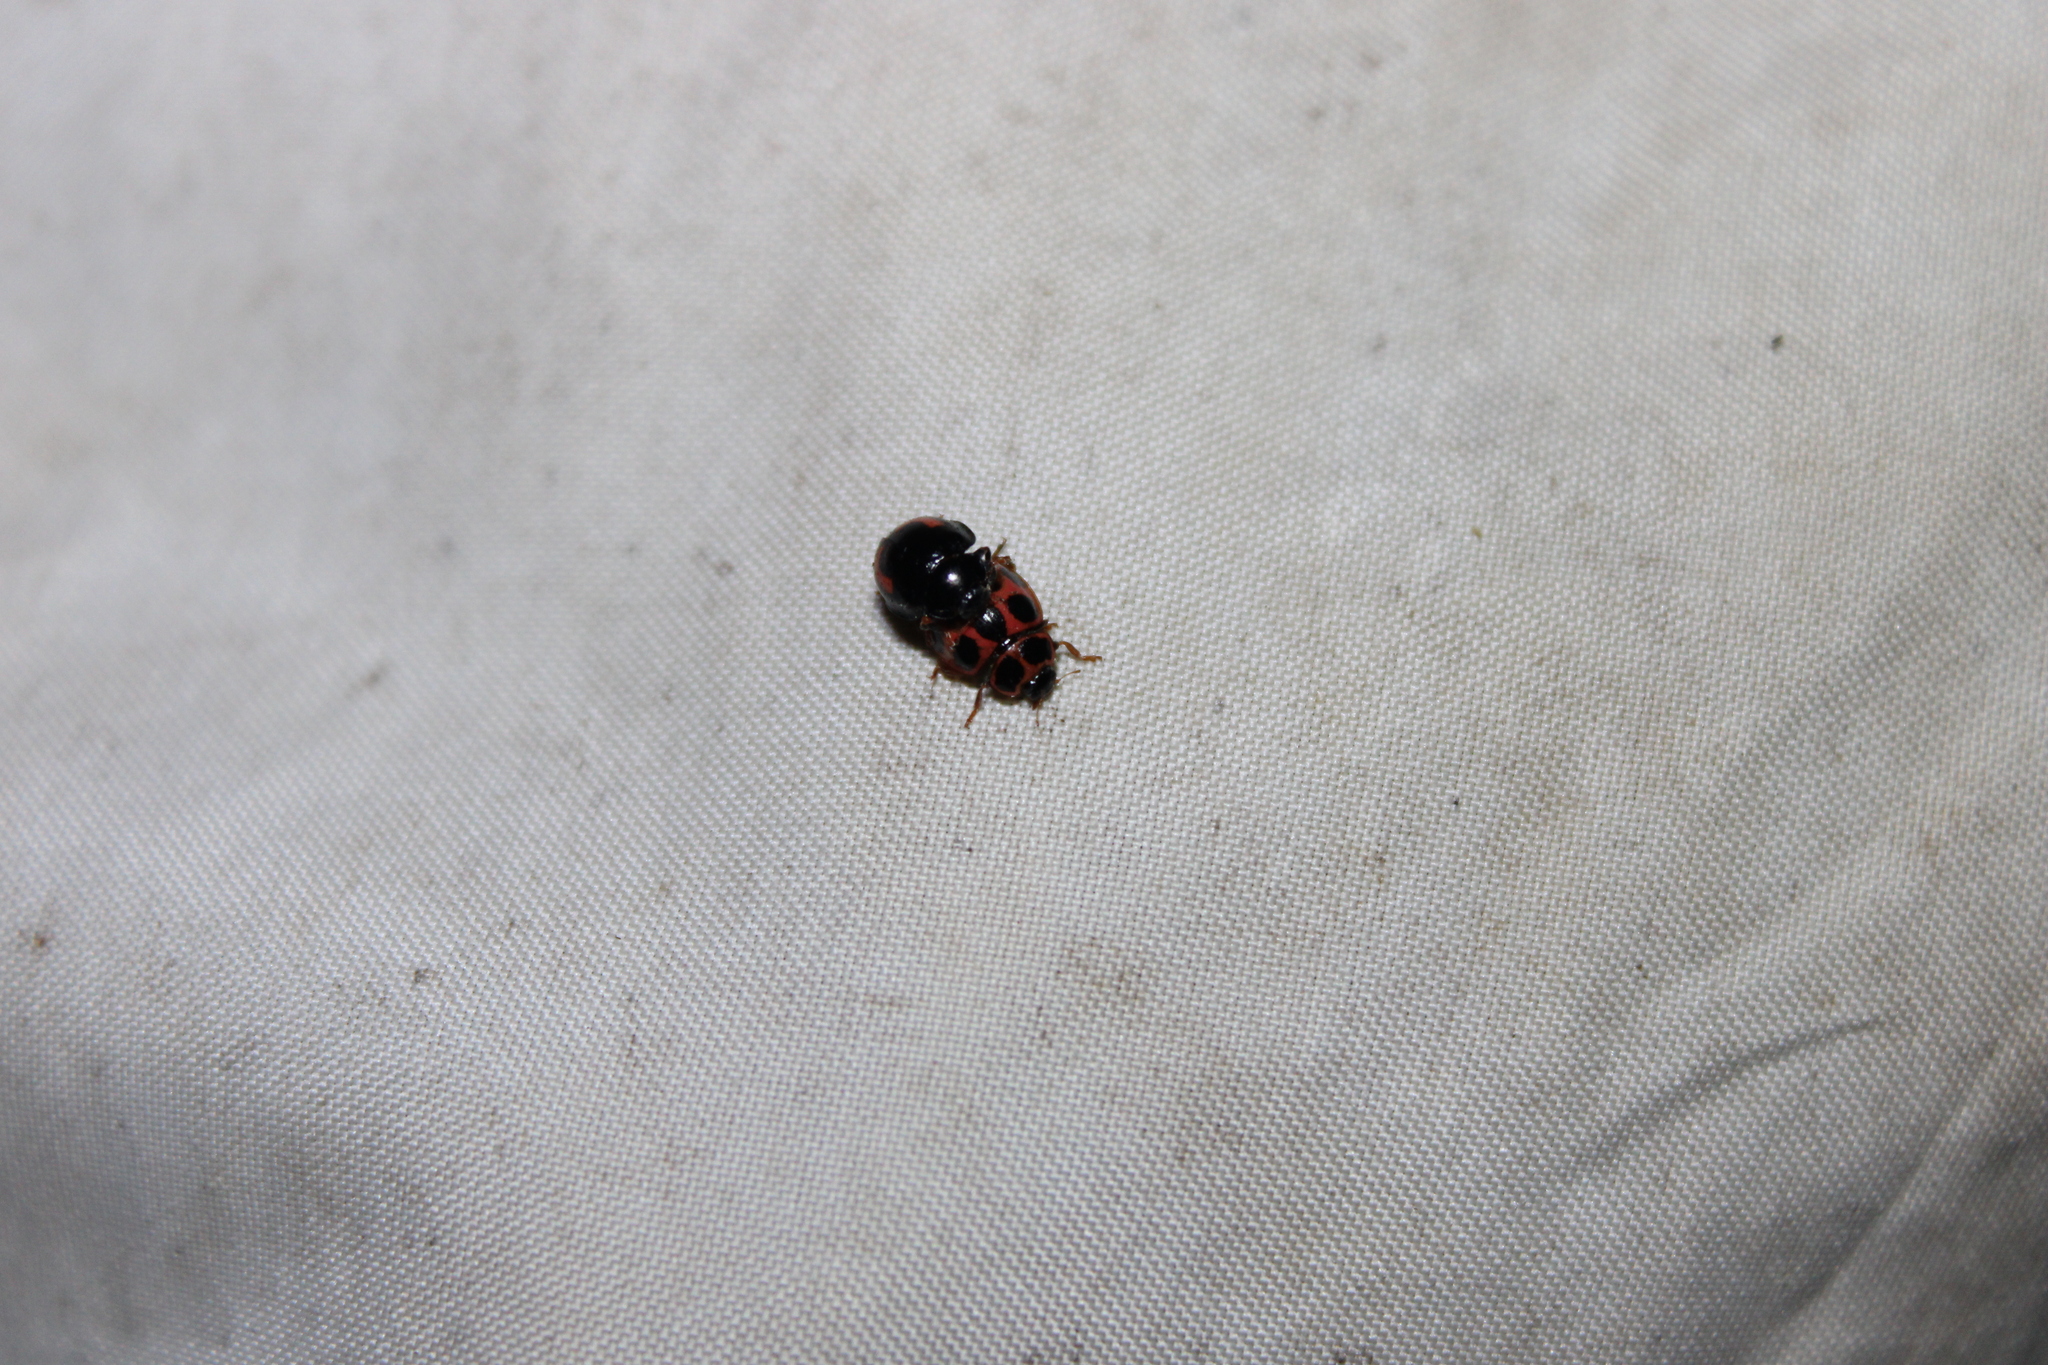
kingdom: Animalia
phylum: Arthropoda
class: Insecta
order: Coleoptera
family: Coccinellidae
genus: Calvia
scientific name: Calvia quatuordecimguttata
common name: Cream-spot ladybird
